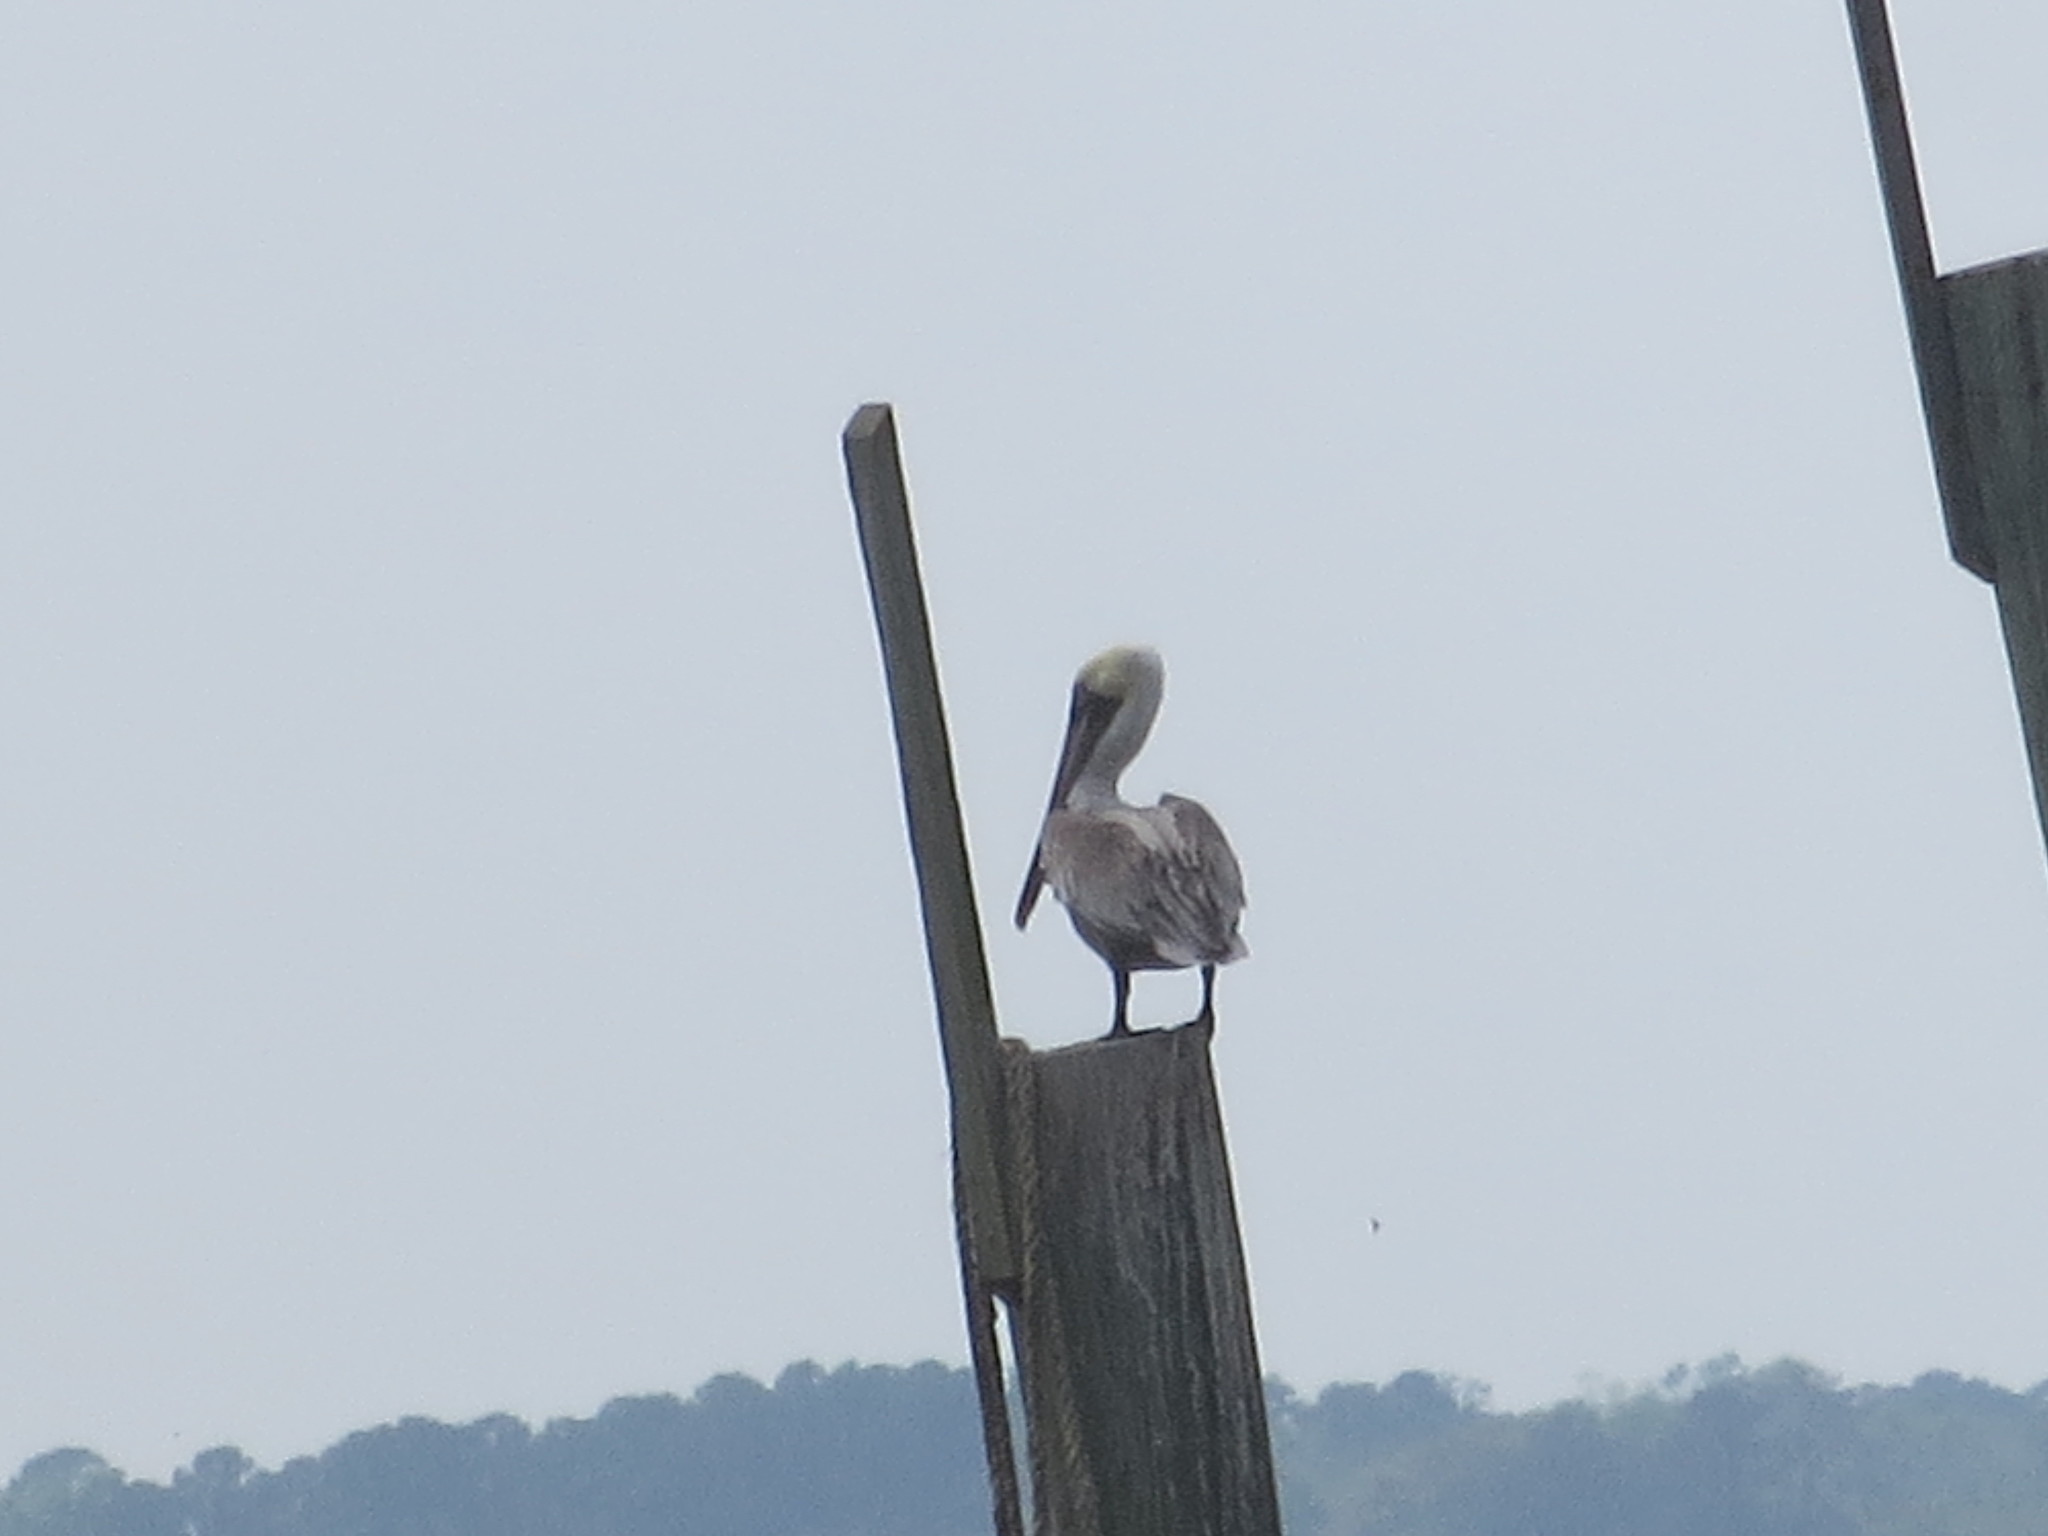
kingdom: Animalia
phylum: Chordata
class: Aves
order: Pelecaniformes
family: Pelecanidae
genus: Pelecanus
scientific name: Pelecanus occidentalis
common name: Brown pelican
